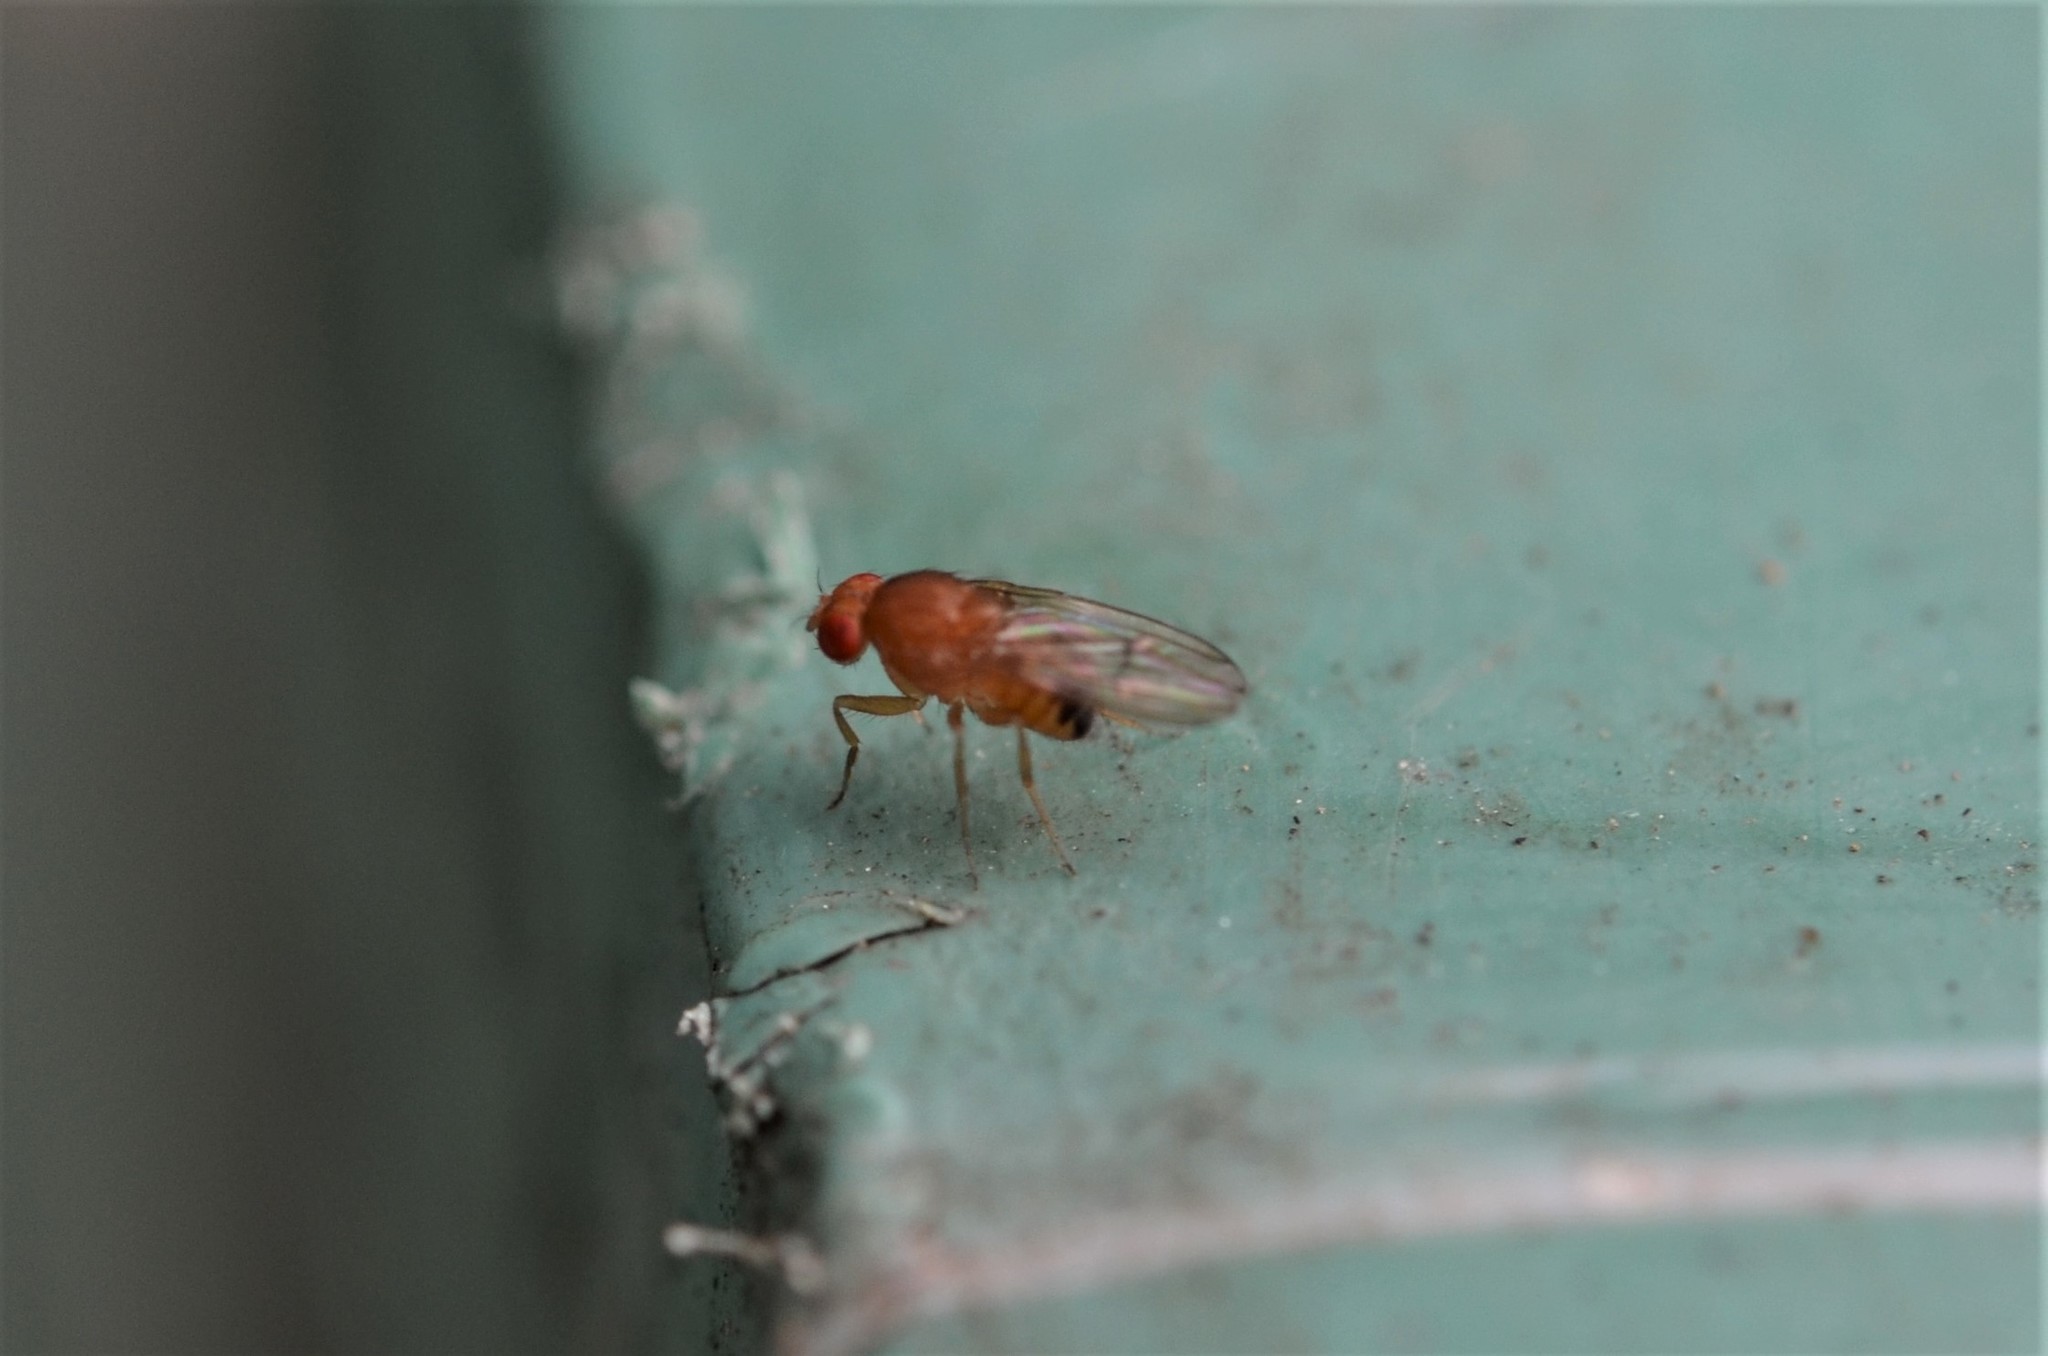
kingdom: Animalia
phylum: Arthropoda
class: Insecta
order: Diptera
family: Drosophilidae
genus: Drosophila
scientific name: Drosophila immigrans
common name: Pomace fly
